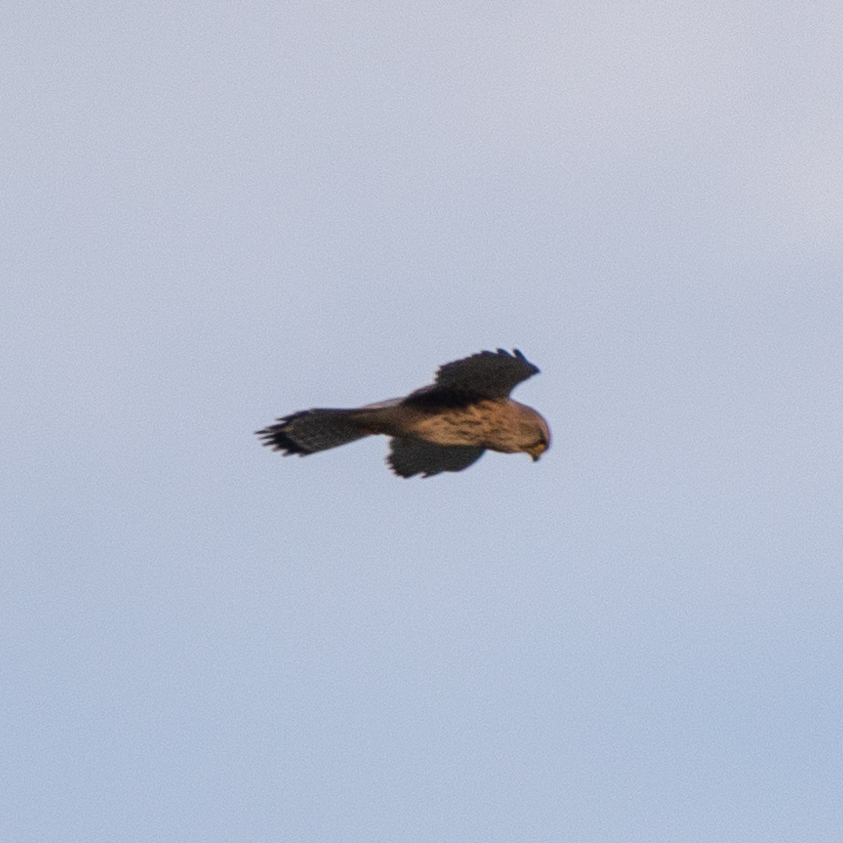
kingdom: Animalia
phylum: Chordata
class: Aves
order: Falconiformes
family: Falconidae
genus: Falco
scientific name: Falco tinnunculus
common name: Common kestrel
